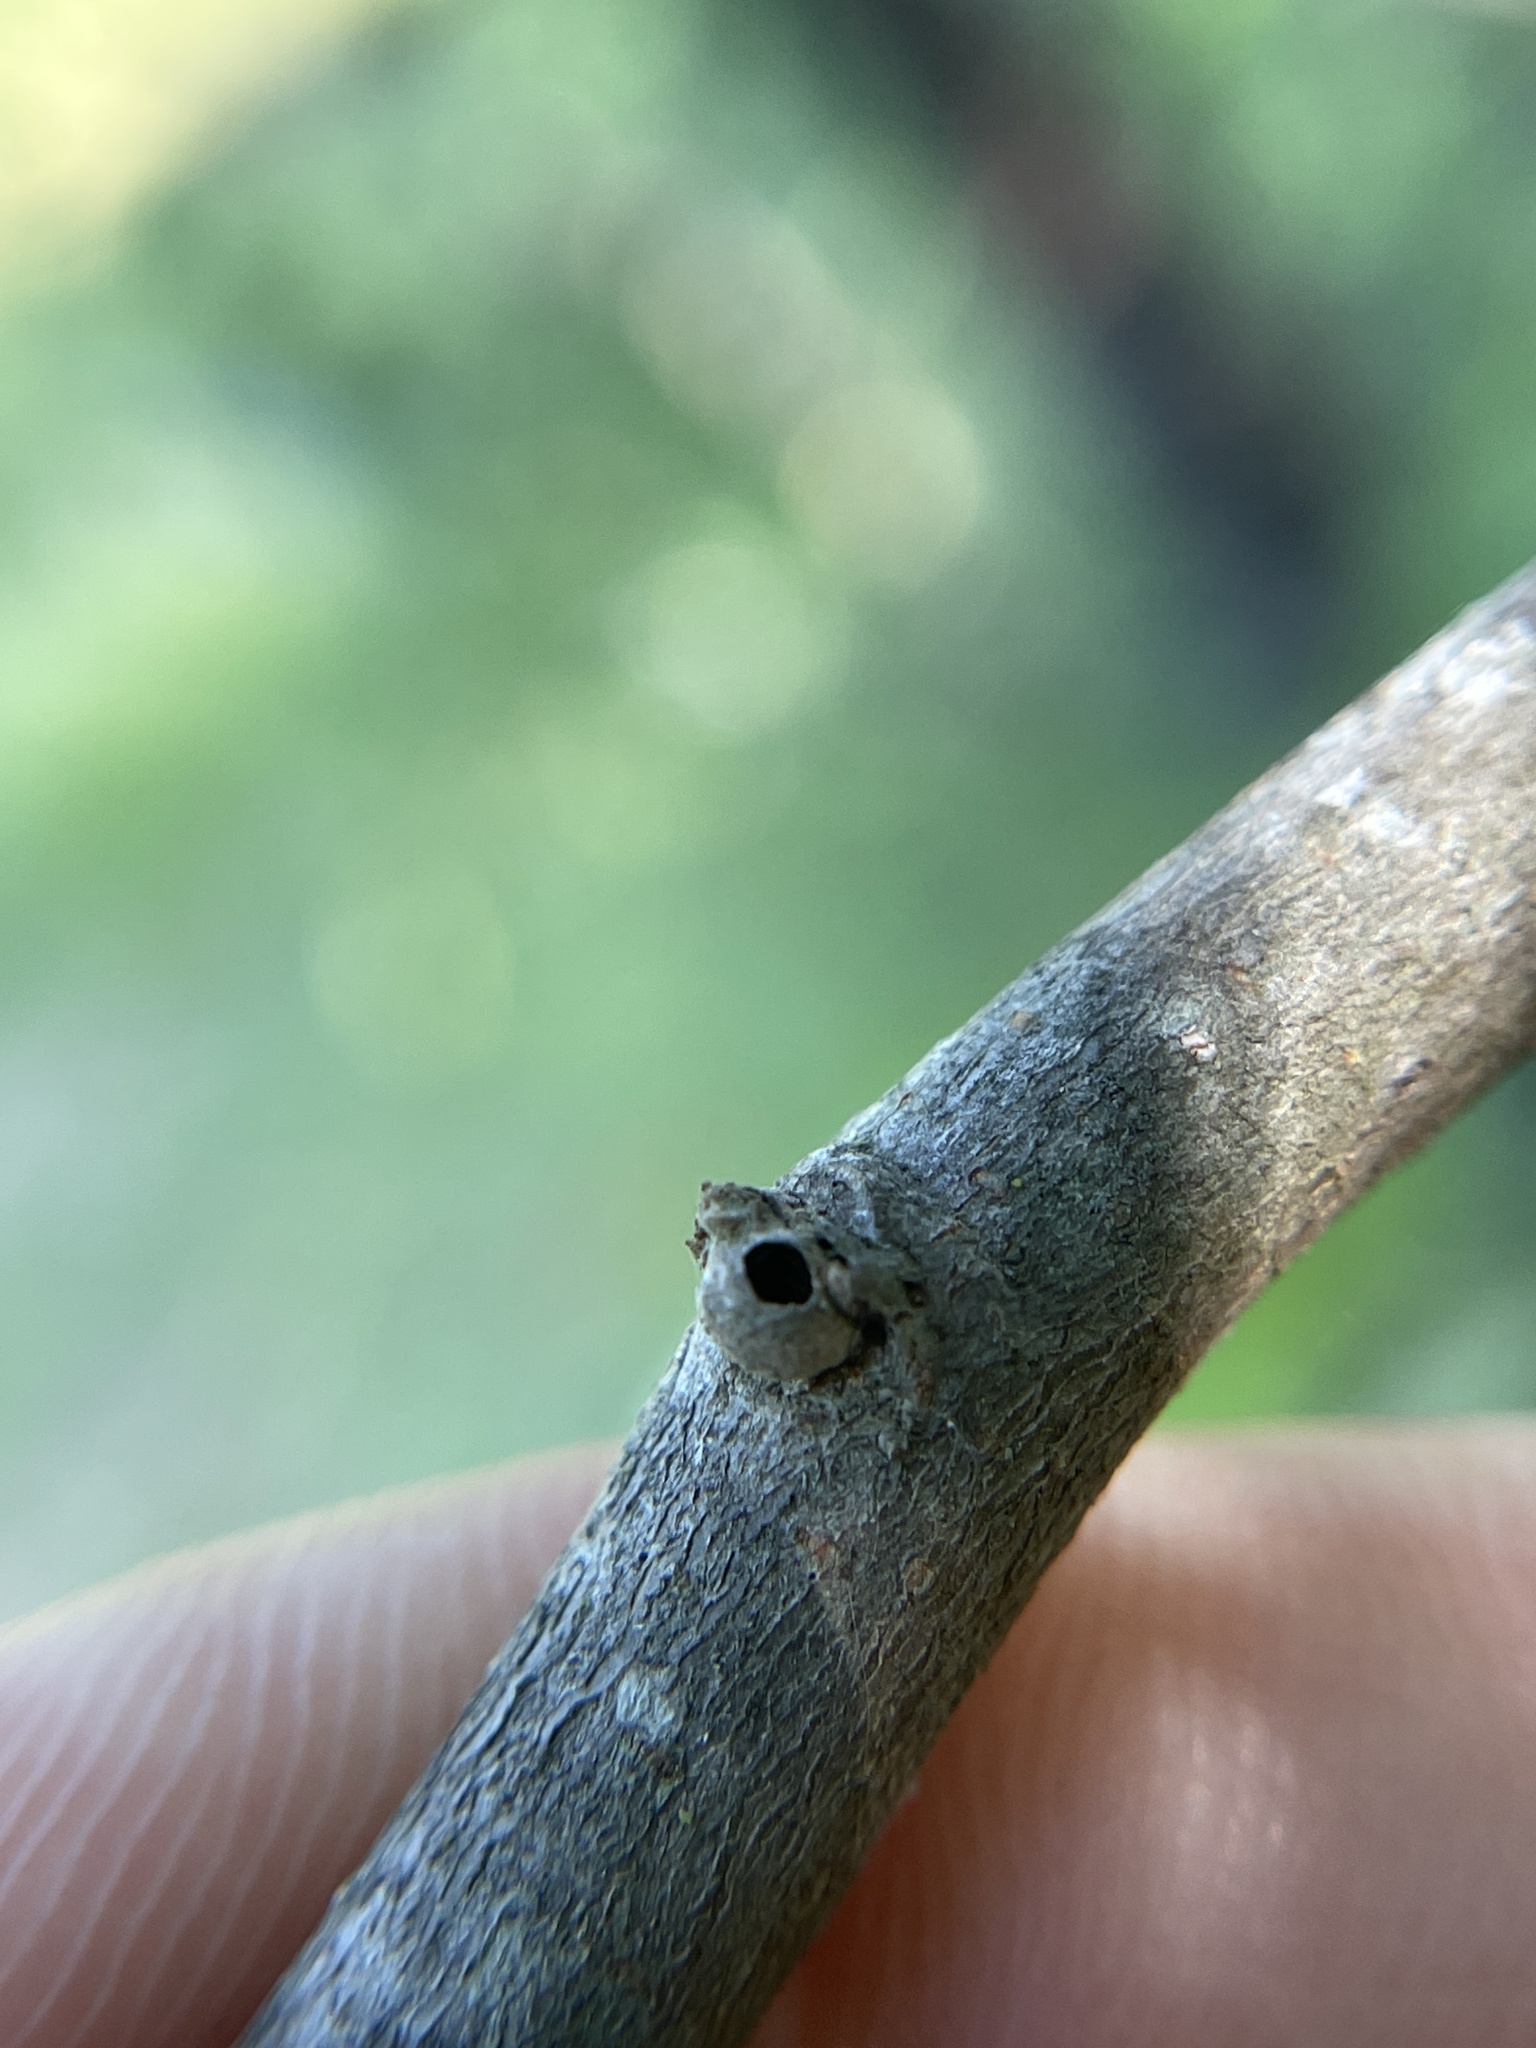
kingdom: Animalia
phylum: Arthropoda
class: Insecta
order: Hemiptera
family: Aphalaridae
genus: Pachypsylla
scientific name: Pachypsylla celtidisgemma
